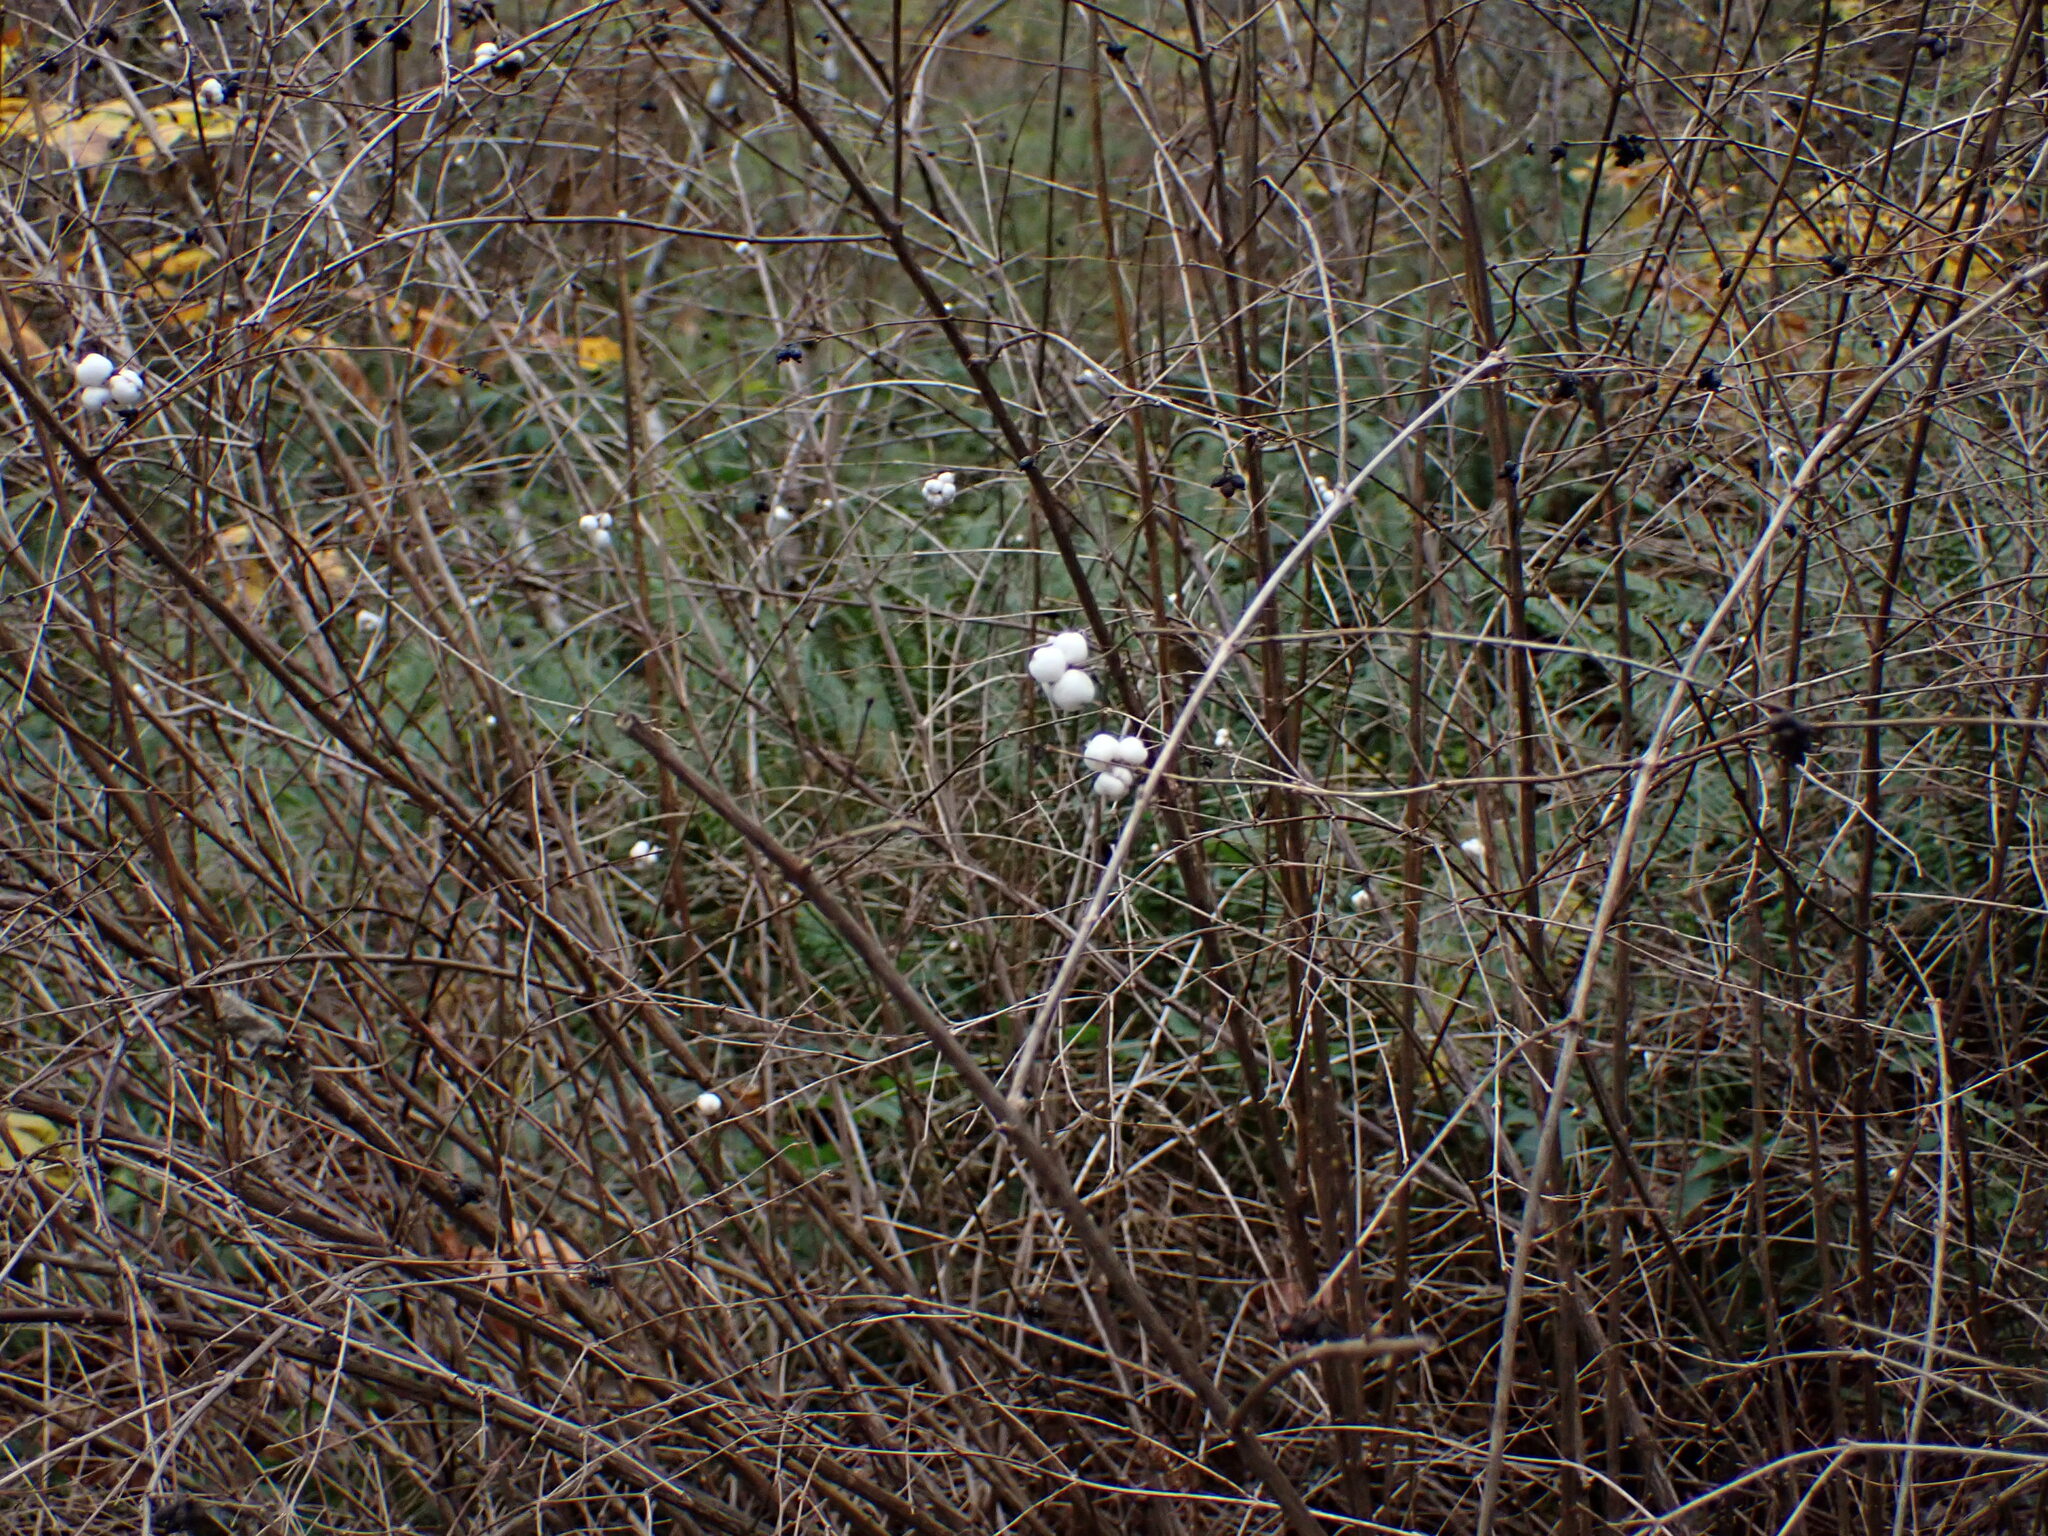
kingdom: Plantae
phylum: Tracheophyta
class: Magnoliopsida
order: Dipsacales
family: Caprifoliaceae
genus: Symphoricarpos
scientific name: Symphoricarpos albus
